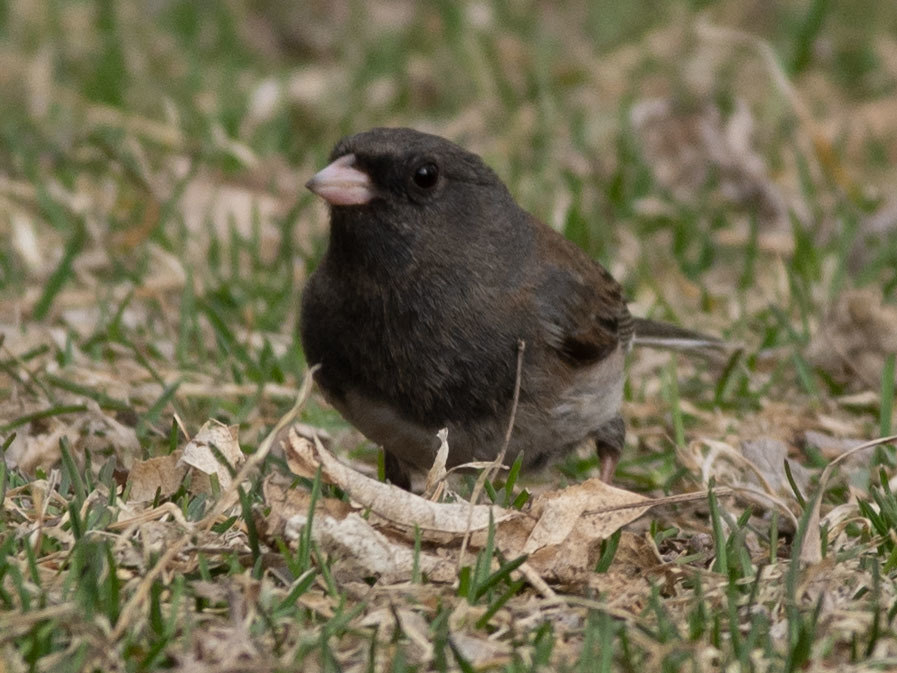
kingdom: Animalia
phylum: Chordata
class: Aves
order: Passeriformes
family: Passerellidae
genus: Junco
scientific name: Junco hyemalis
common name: Dark-eyed junco
